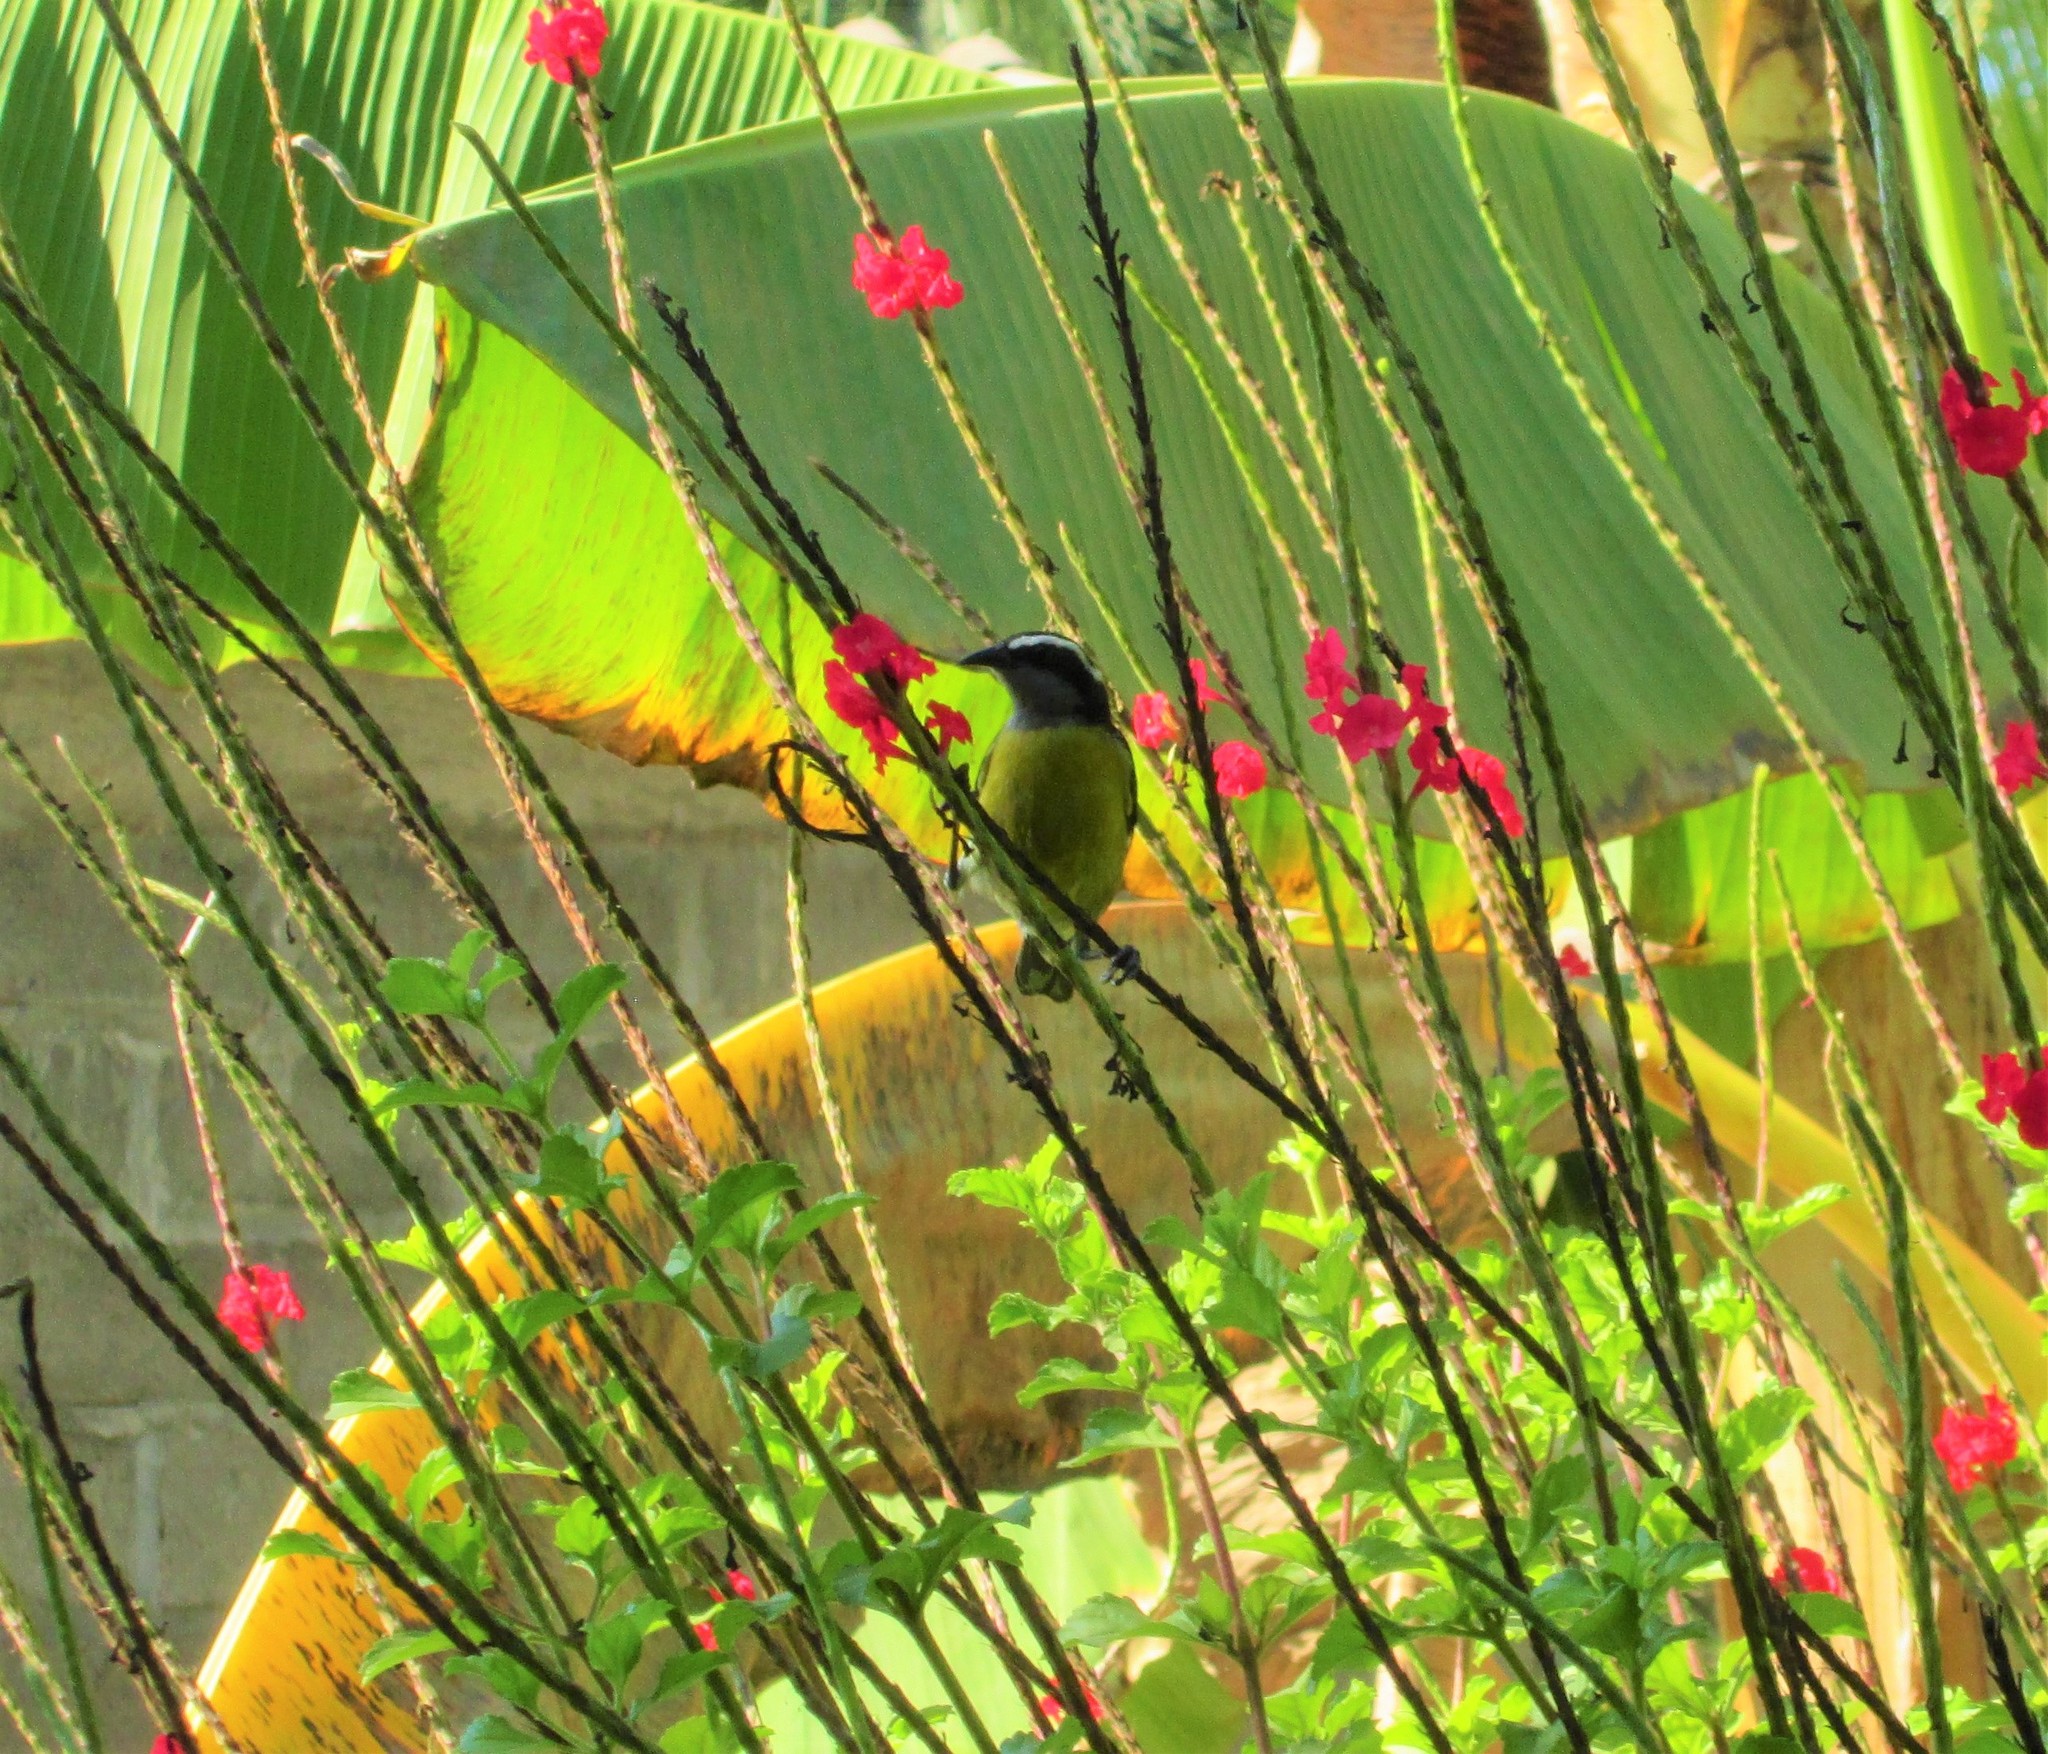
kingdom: Animalia
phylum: Chordata
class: Aves
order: Passeriformes
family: Thraupidae
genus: Coereba
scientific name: Coereba flaveola
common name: Bananaquit
